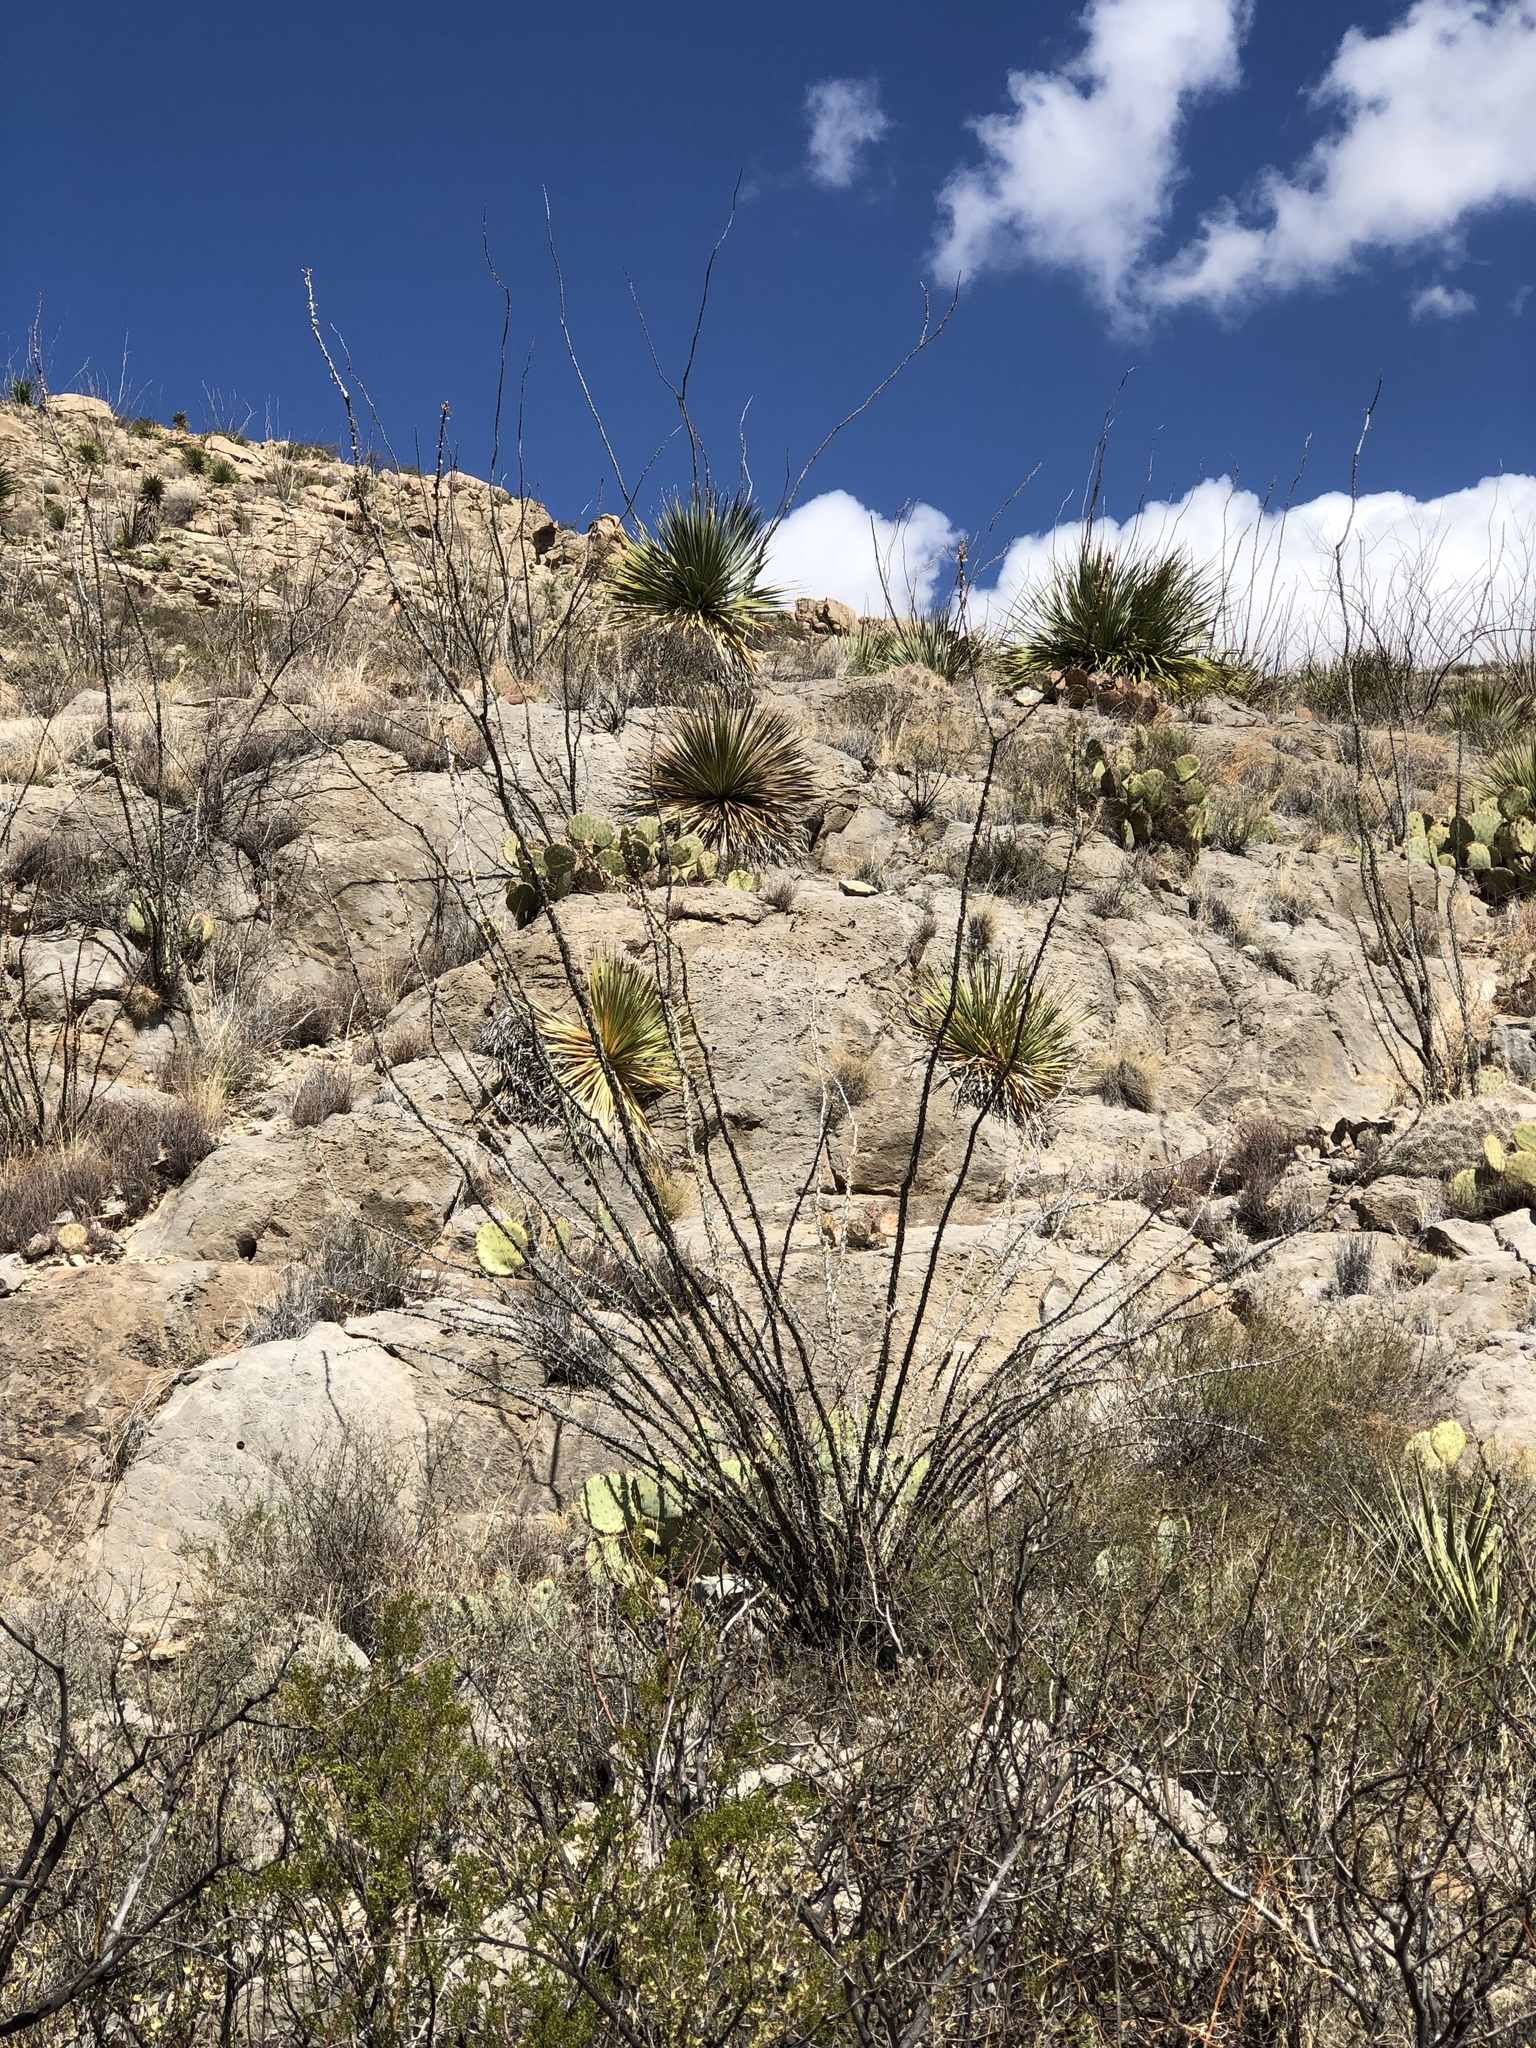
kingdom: Plantae
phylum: Tracheophyta
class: Magnoliopsida
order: Ericales
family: Fouquieriaceae
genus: Fouquieria
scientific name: Fouquieria splendens
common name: Vine-cactus
